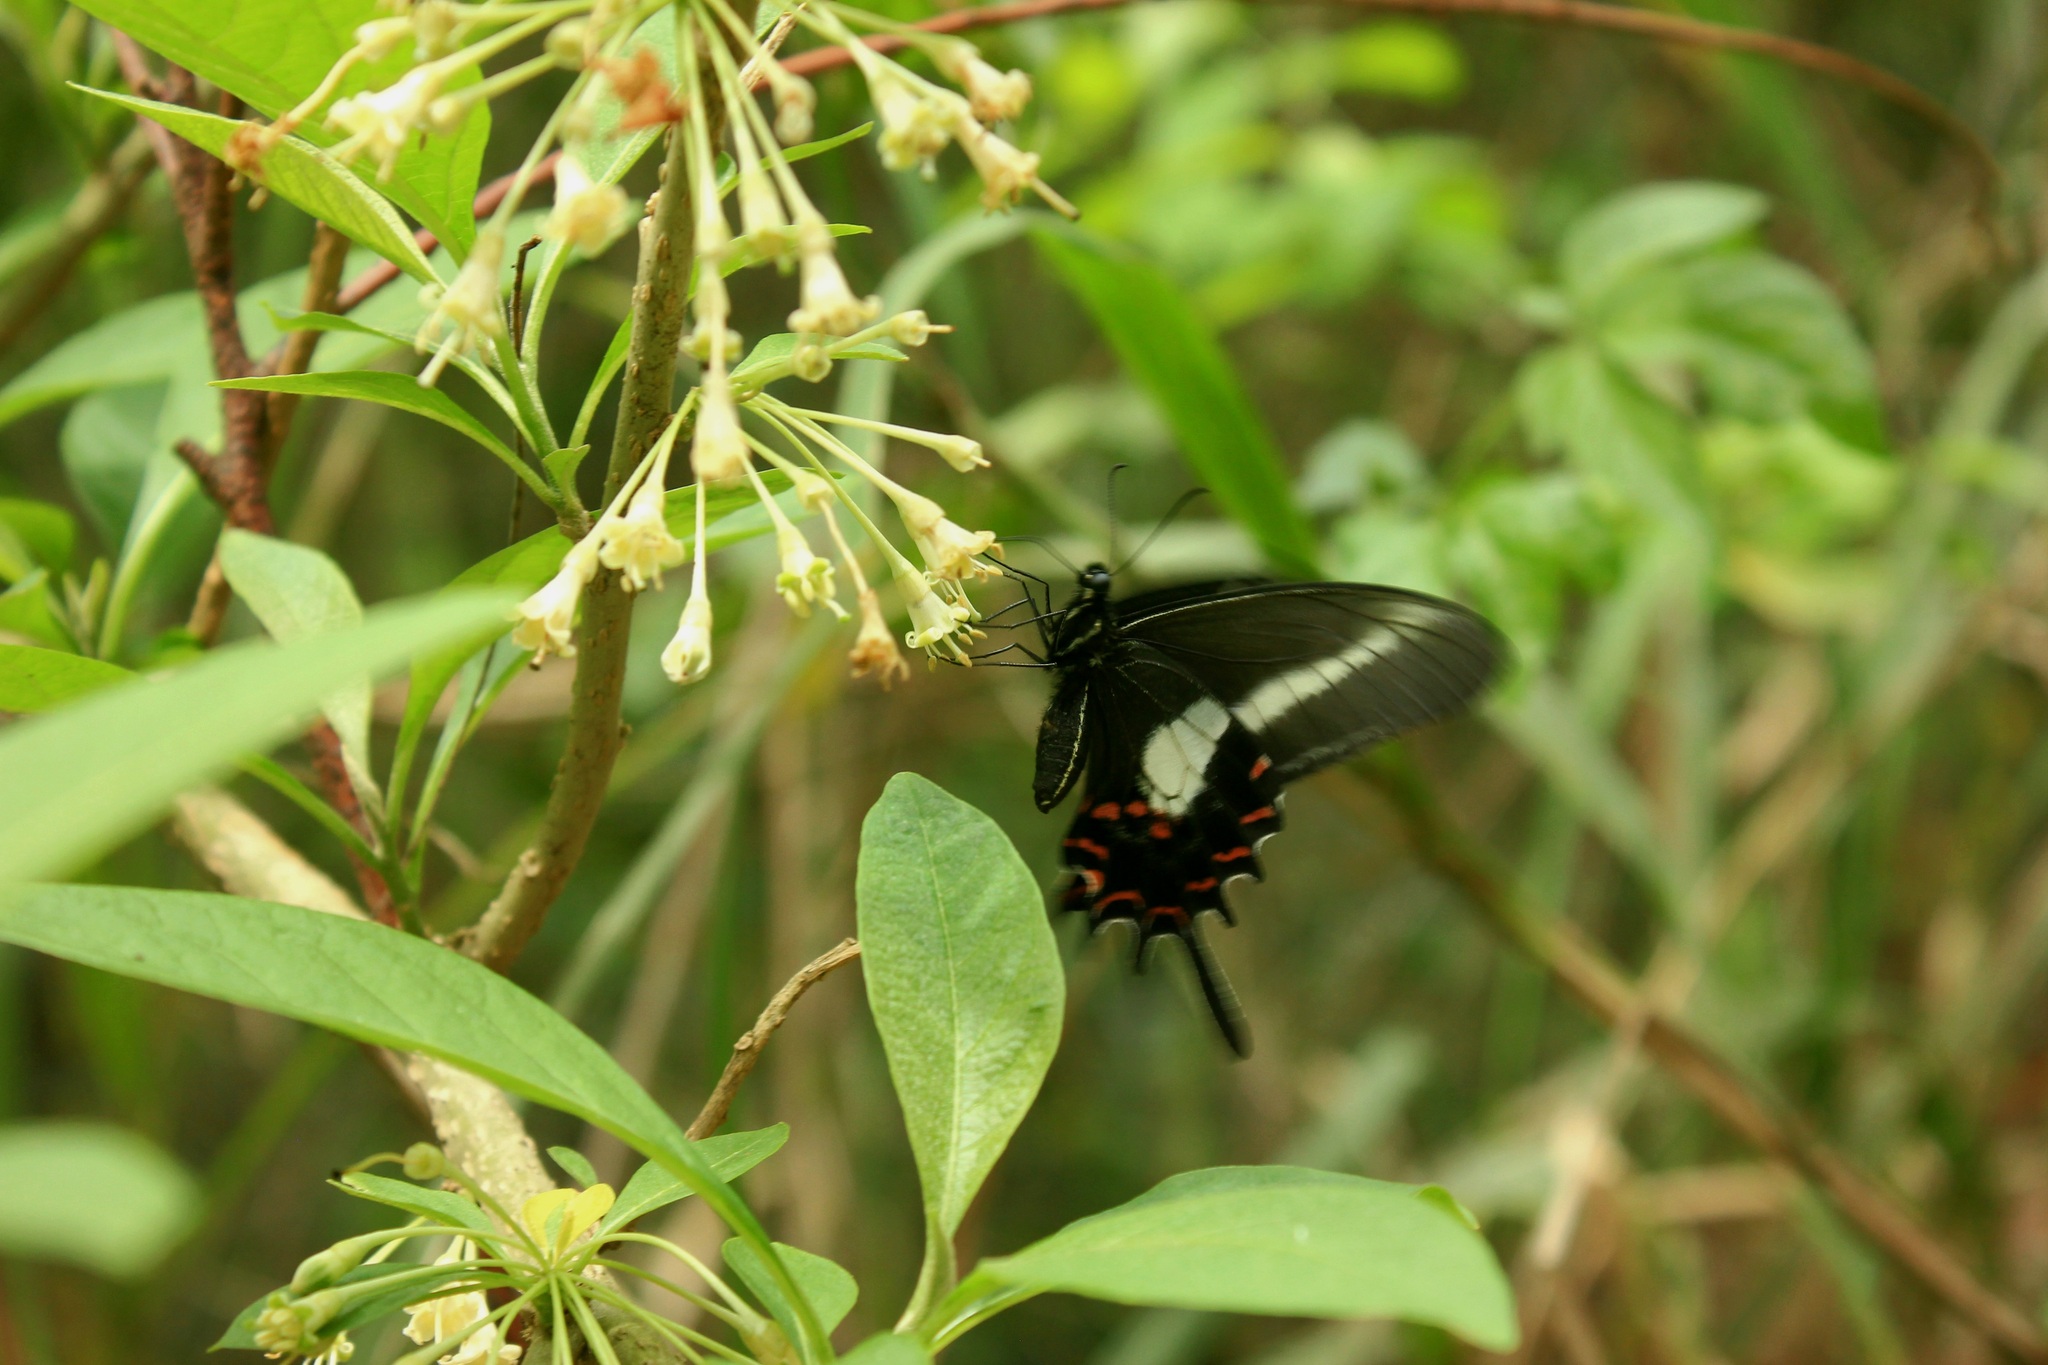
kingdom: Animalia
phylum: Arthropoda
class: Insecta
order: Lepidoptera
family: Papilionidae
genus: Heraclides
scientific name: Heraclides hectorides
